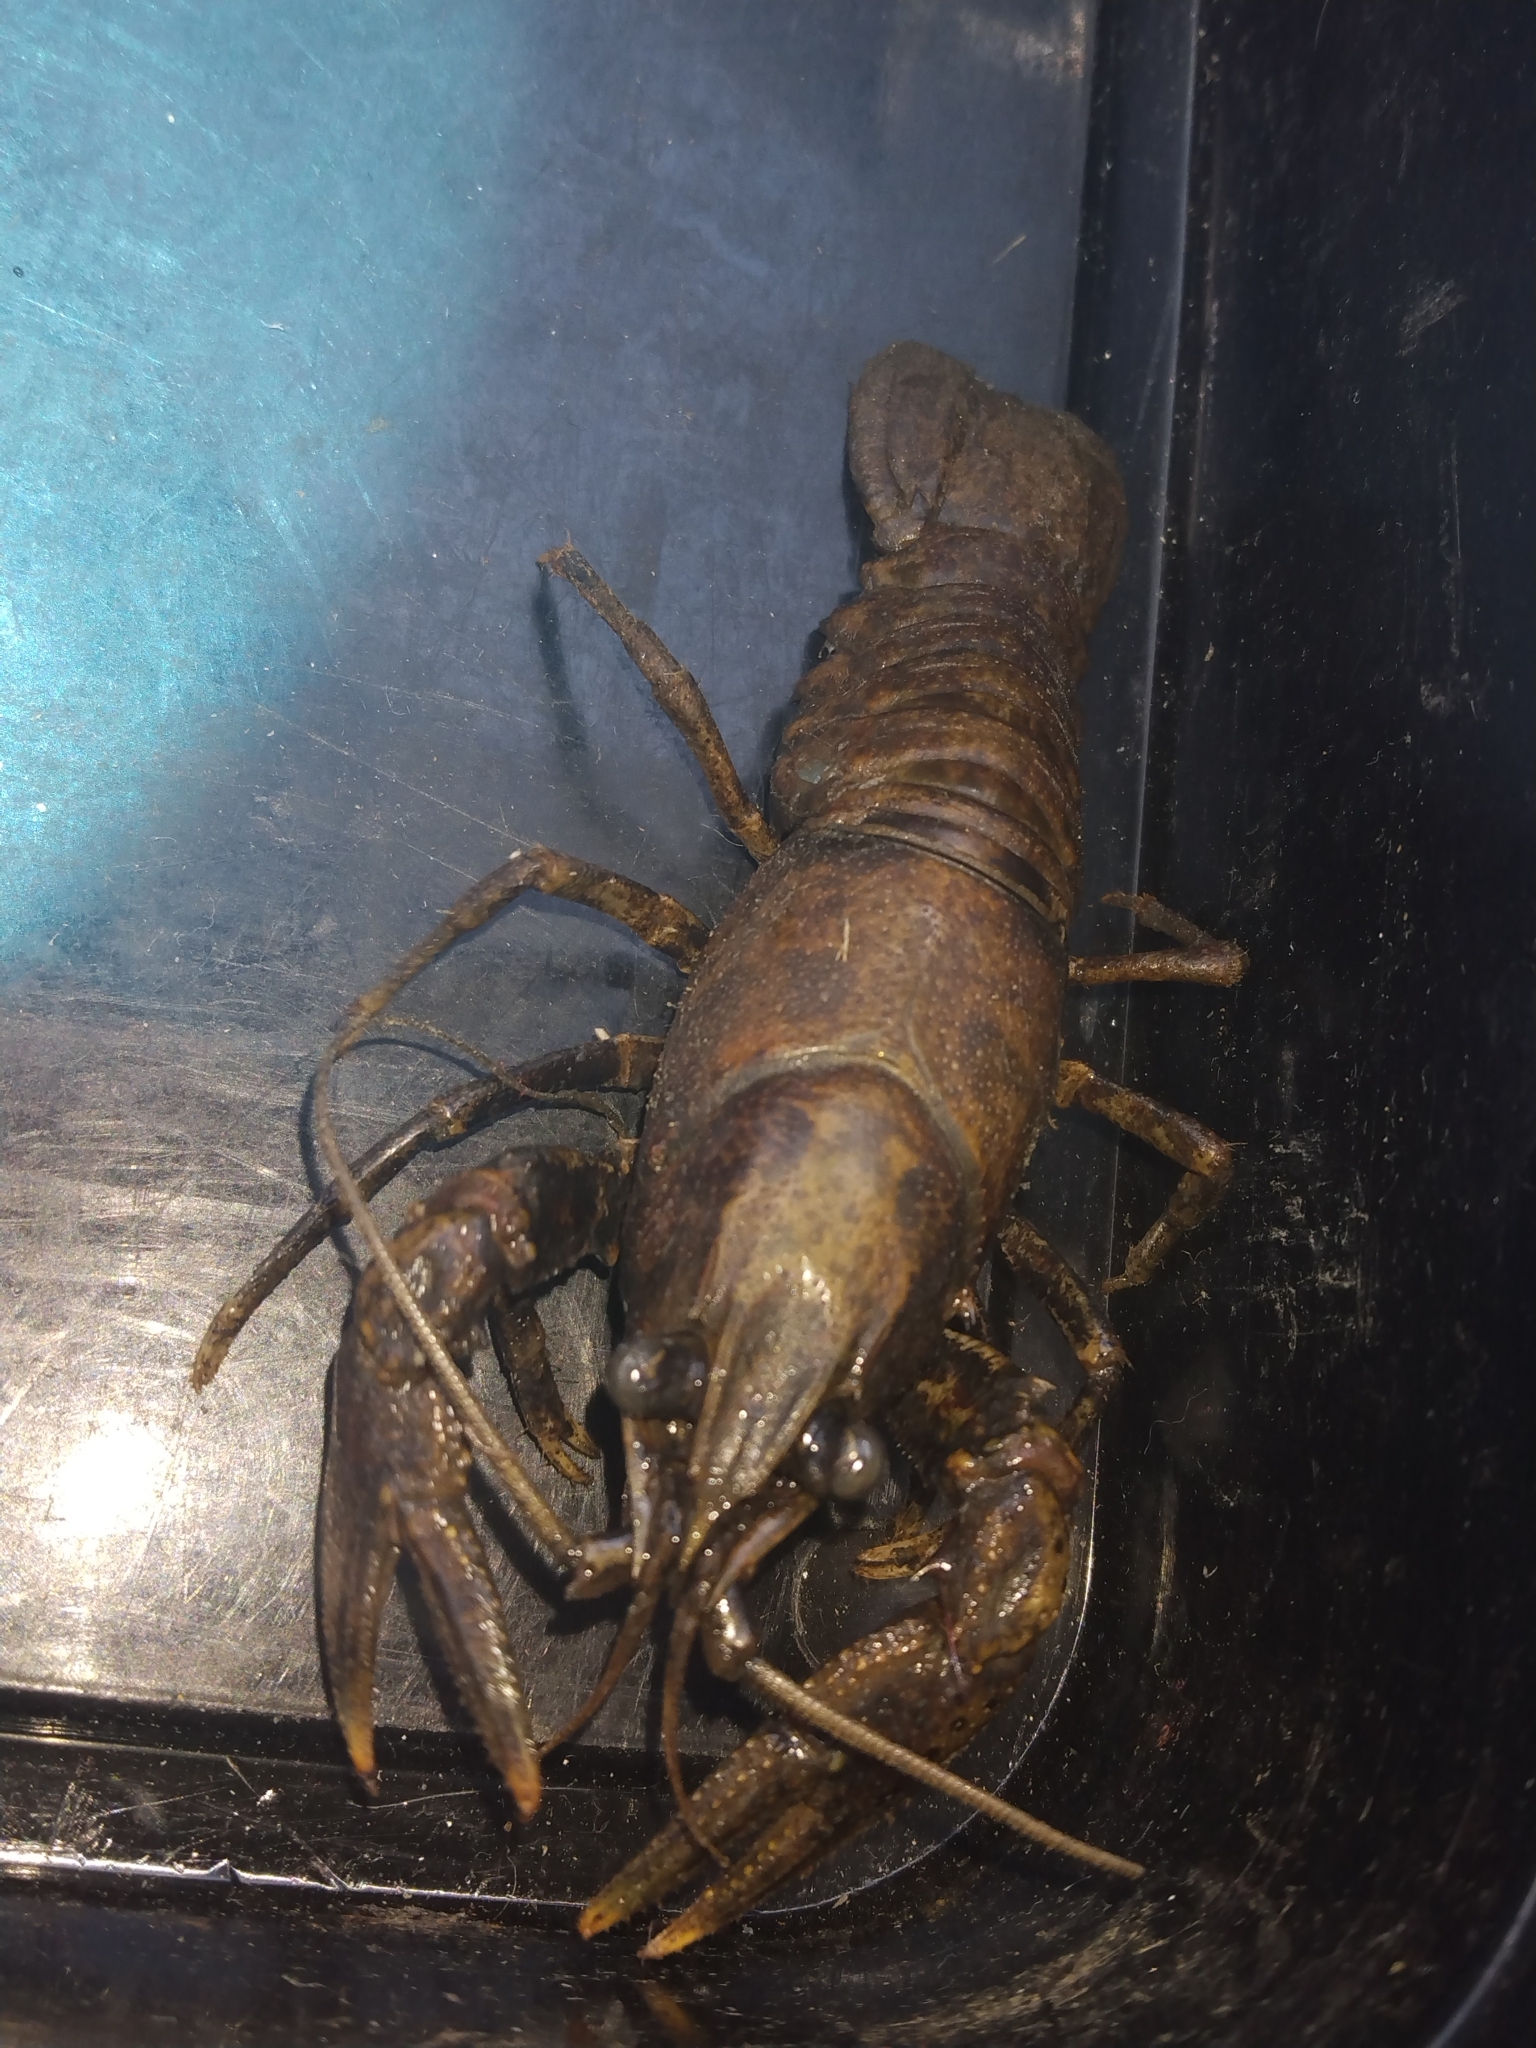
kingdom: Animalia
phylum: Arthropoda
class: Malacostraca
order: Decapoda
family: Cambaridae
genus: Faxonius
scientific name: Faxonius virilis
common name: Virile crayfish
